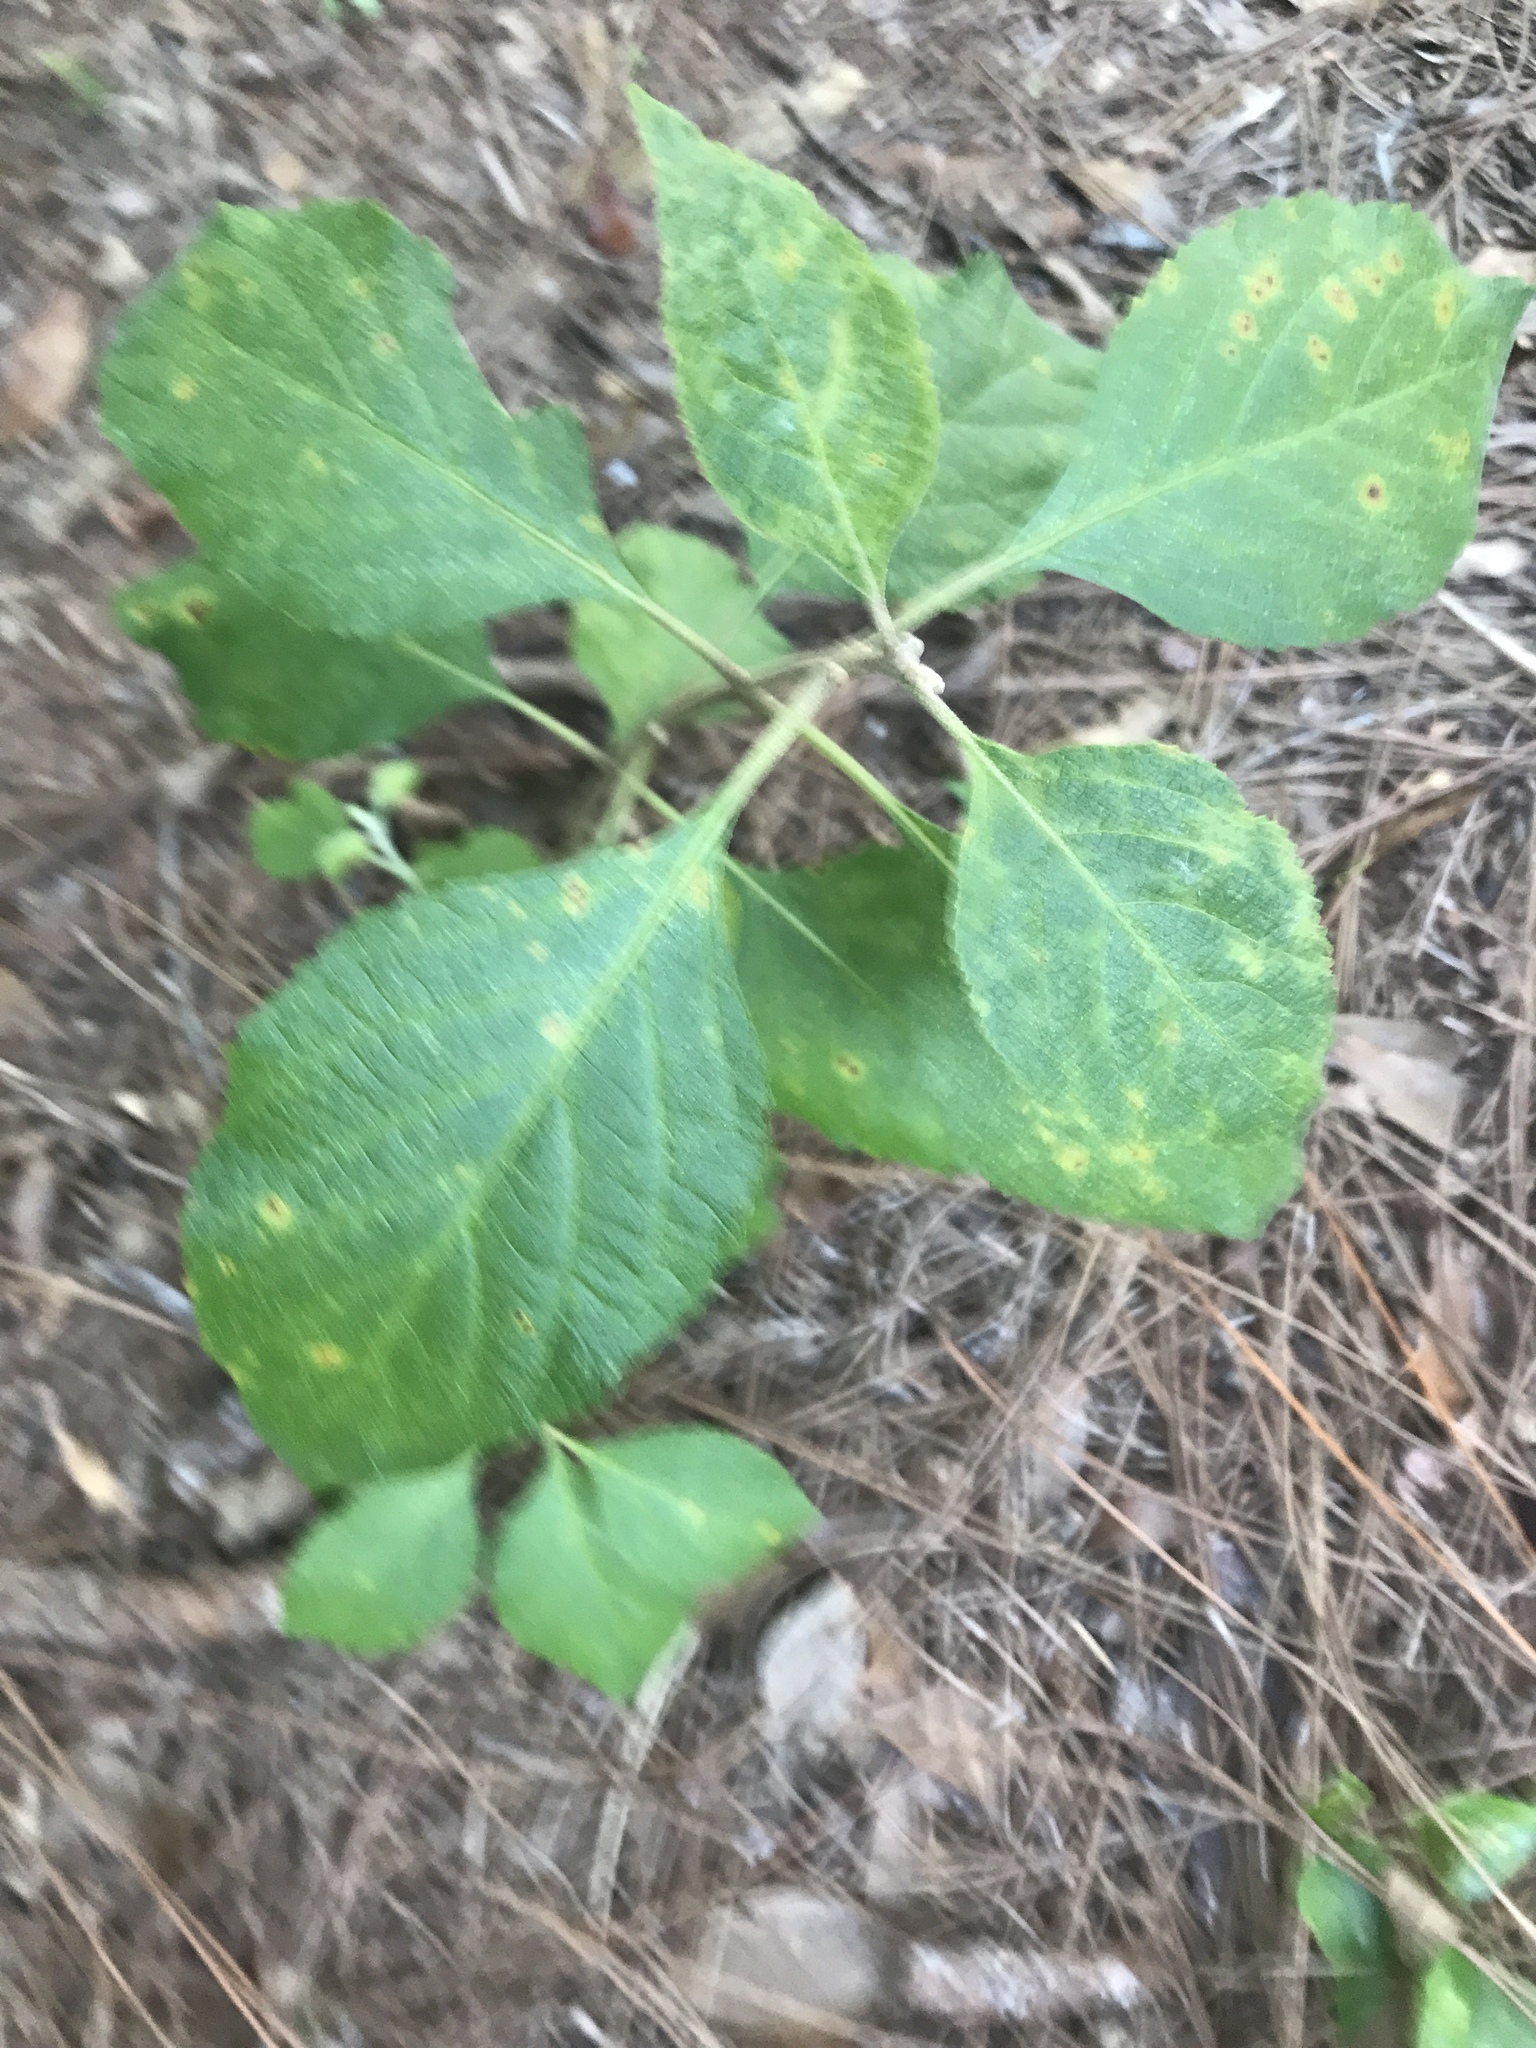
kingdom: Plantae
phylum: Tracheophyta
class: Magnoliopsida
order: Lamiales
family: Lamiaceae
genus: Callicarpa
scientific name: Callicarpa americana
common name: American beautyberry
